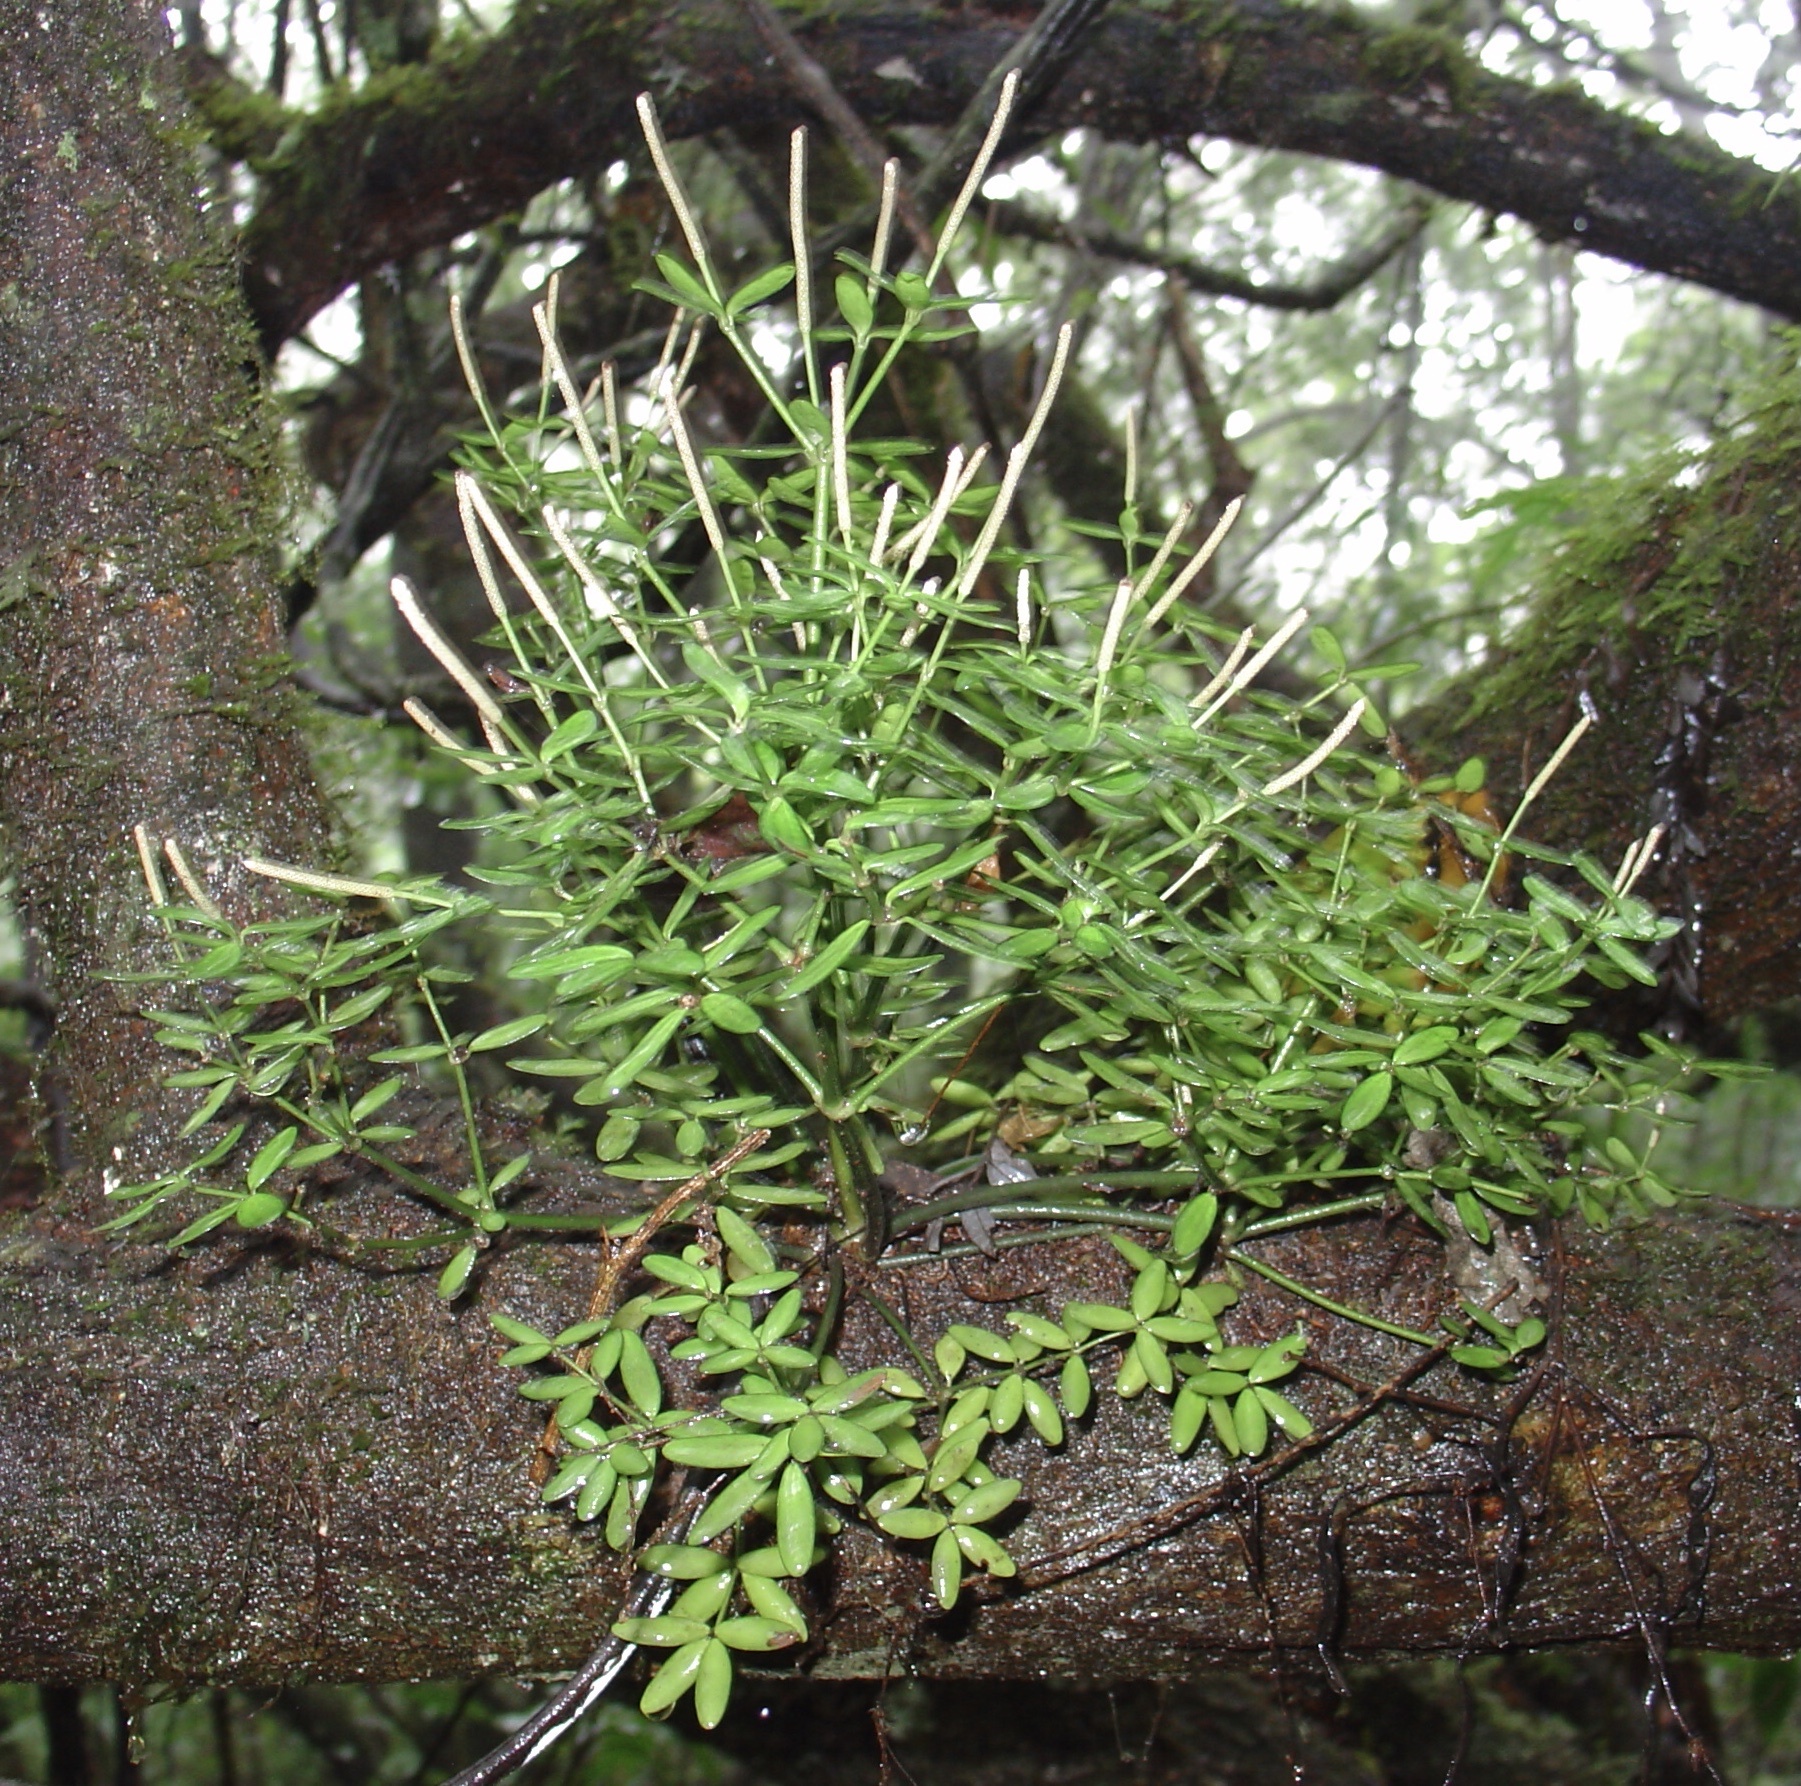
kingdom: Plantae
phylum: Tracheophyta
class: Magnoliopsida
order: Piperales
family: Piperaceae
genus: Peperomia
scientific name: Peperomia theodori
